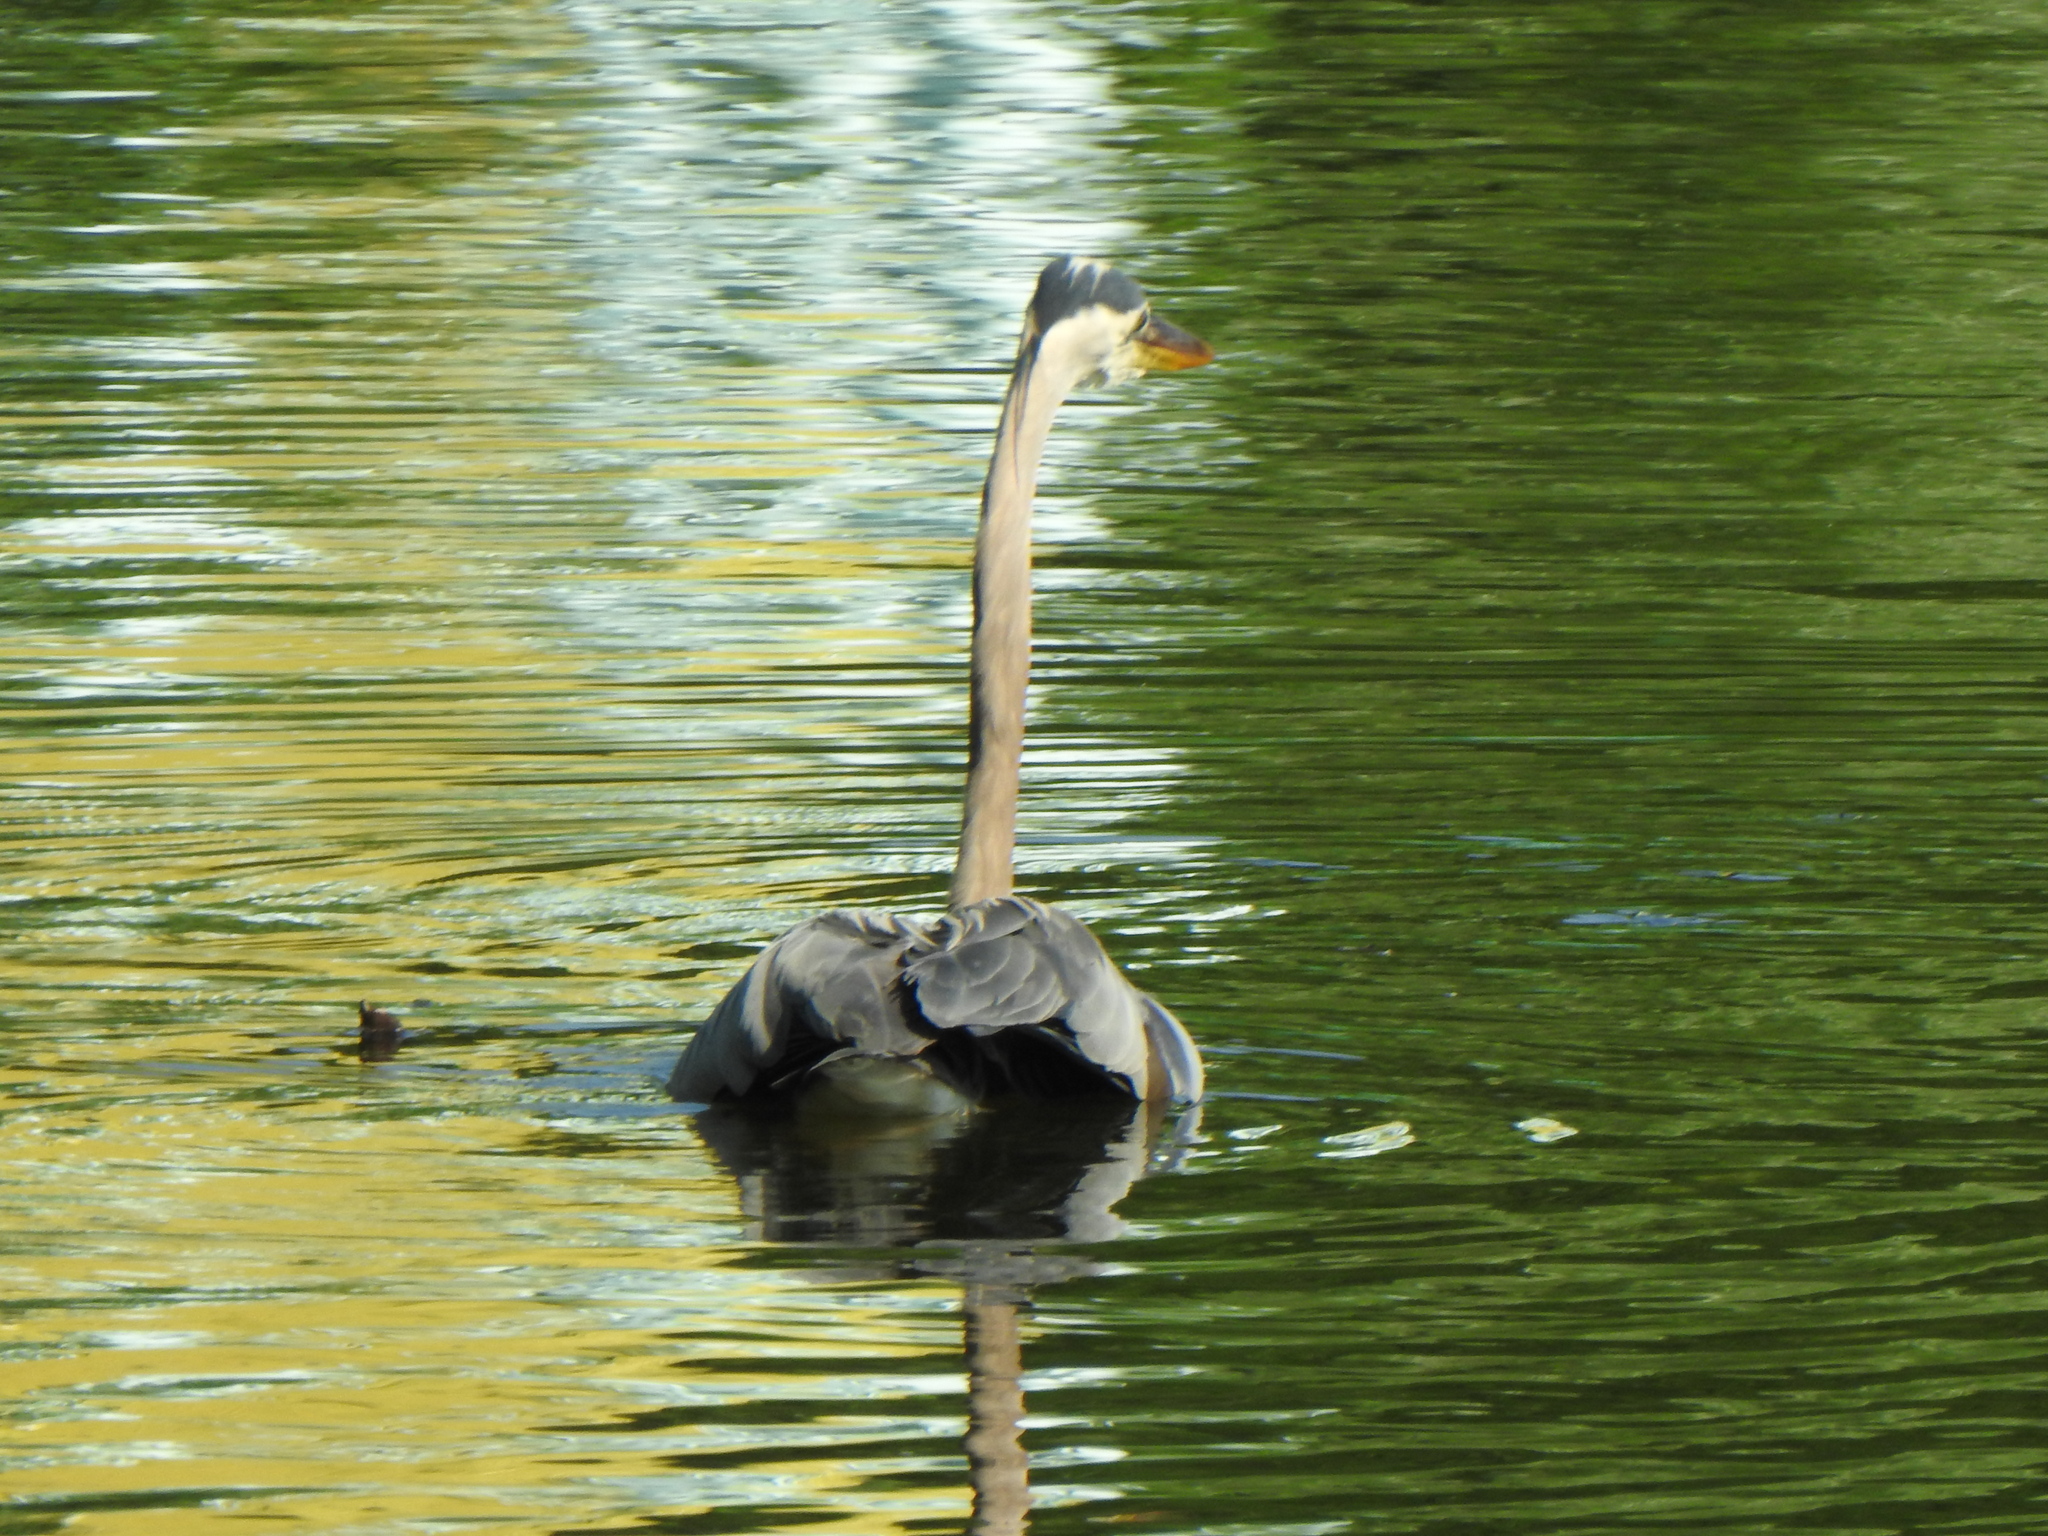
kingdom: Animalia
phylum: Chordata
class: Aves
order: Pelecaniformes
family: Ardeidae
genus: Ardea
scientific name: Ardea herodias
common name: Great blue heron
